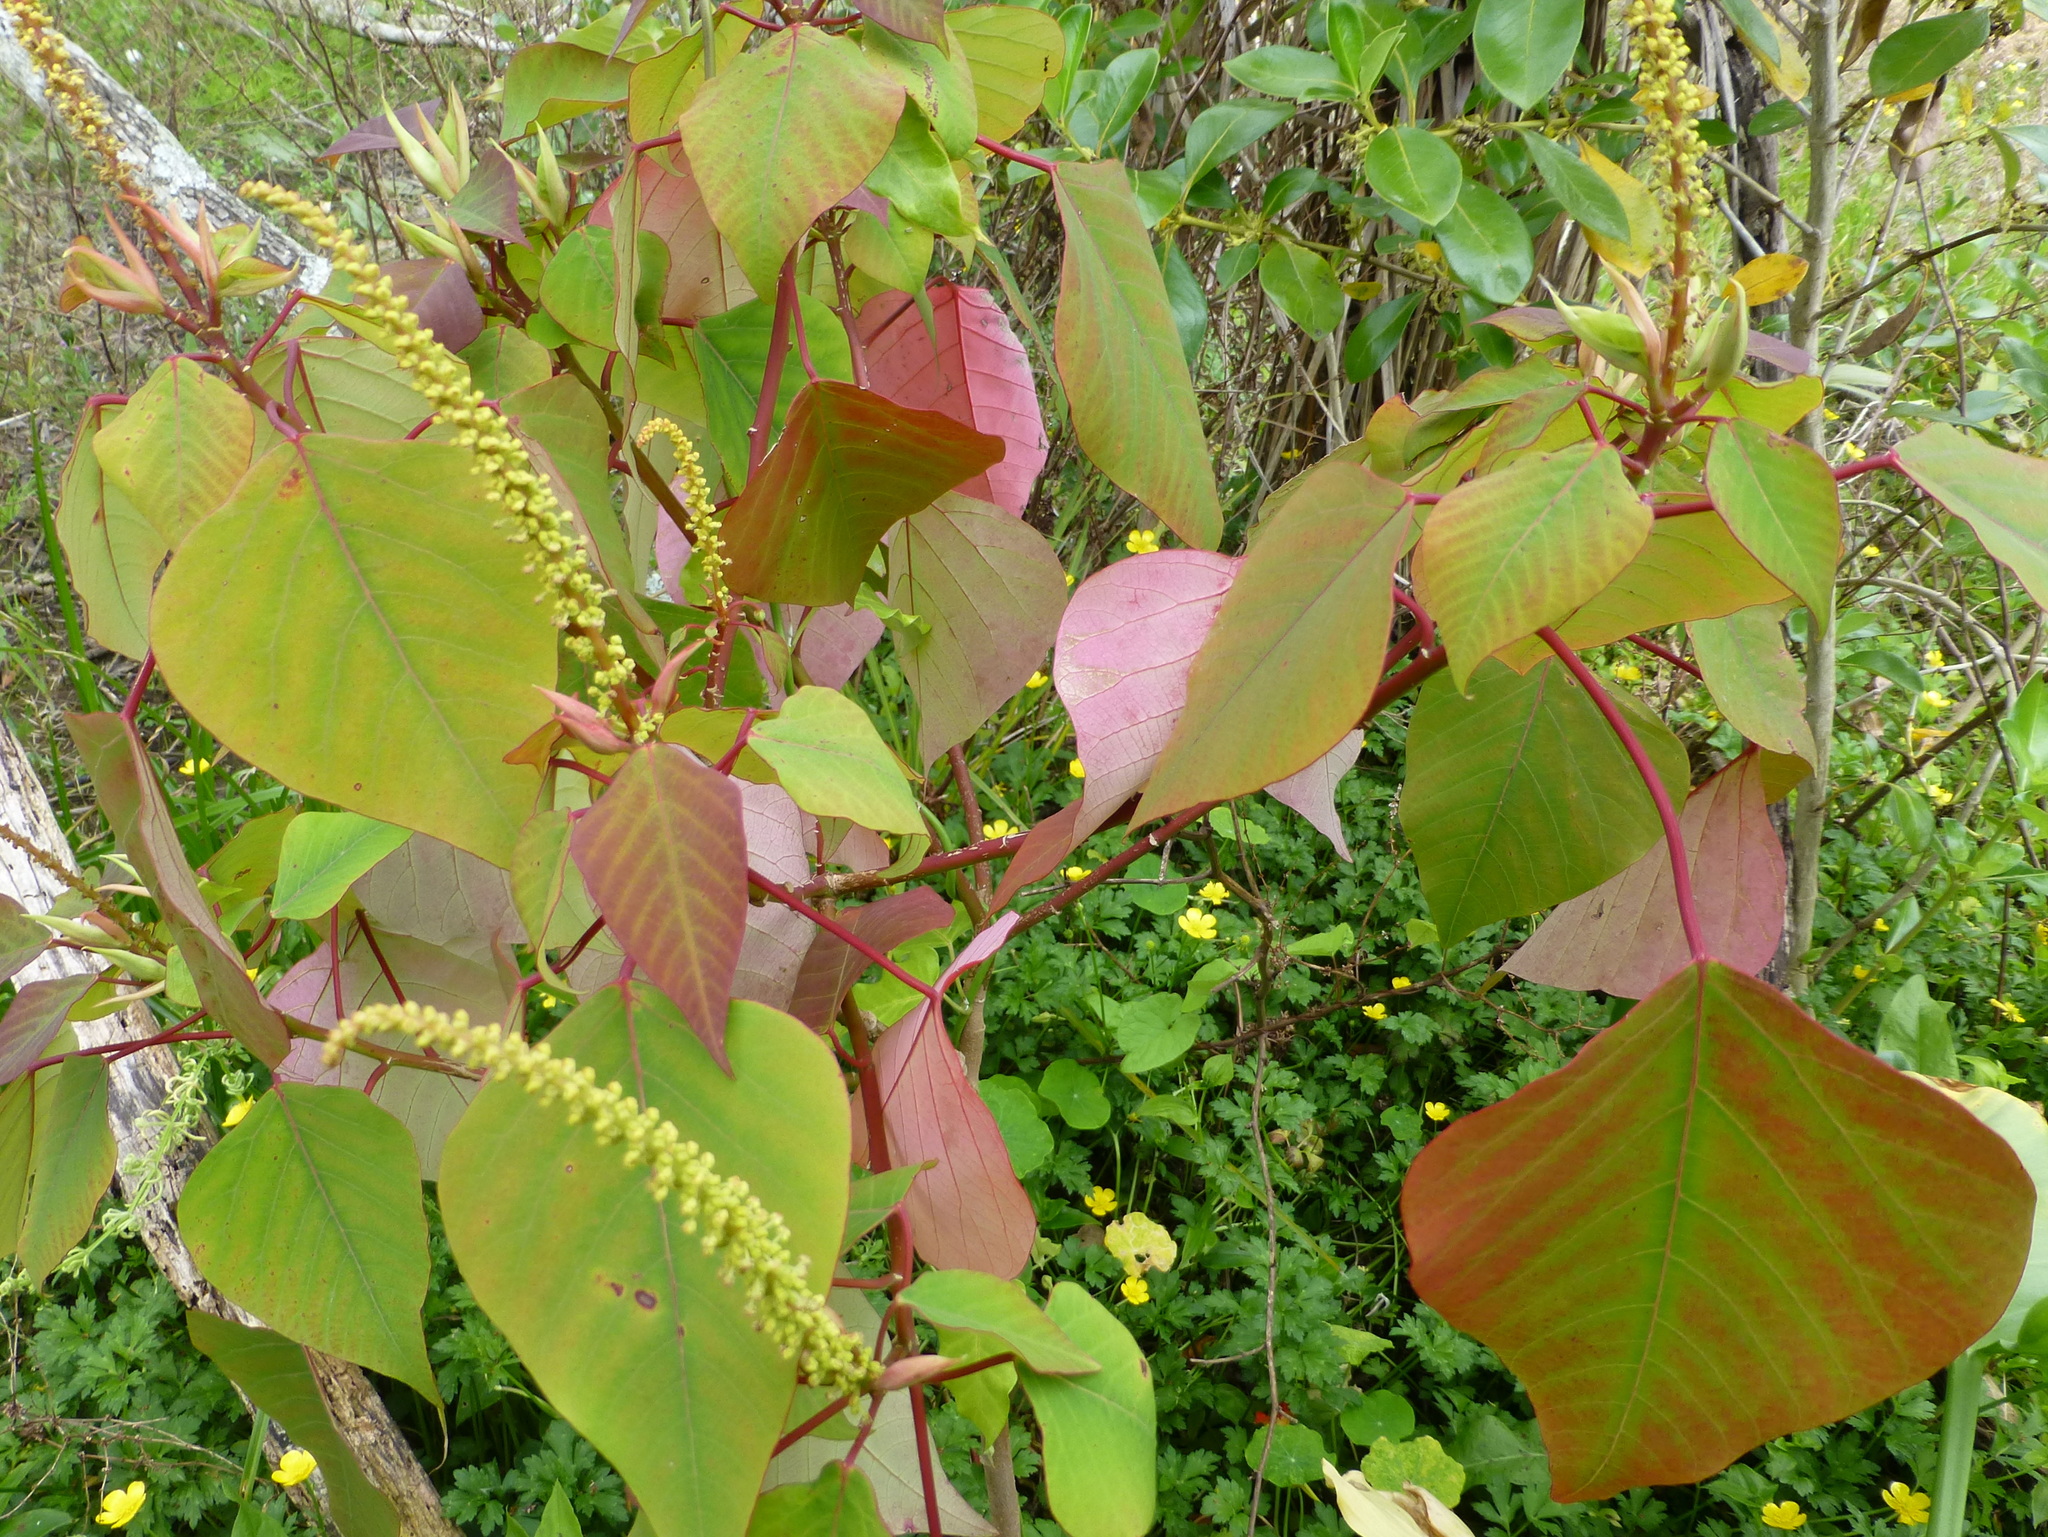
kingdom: Plantae
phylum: Tracheophyta
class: Magnoliopsida
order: Malpighiales
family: Euphorbiaceae
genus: Homalanthus
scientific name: Homalanthus populifolius
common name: Queensland poplar
